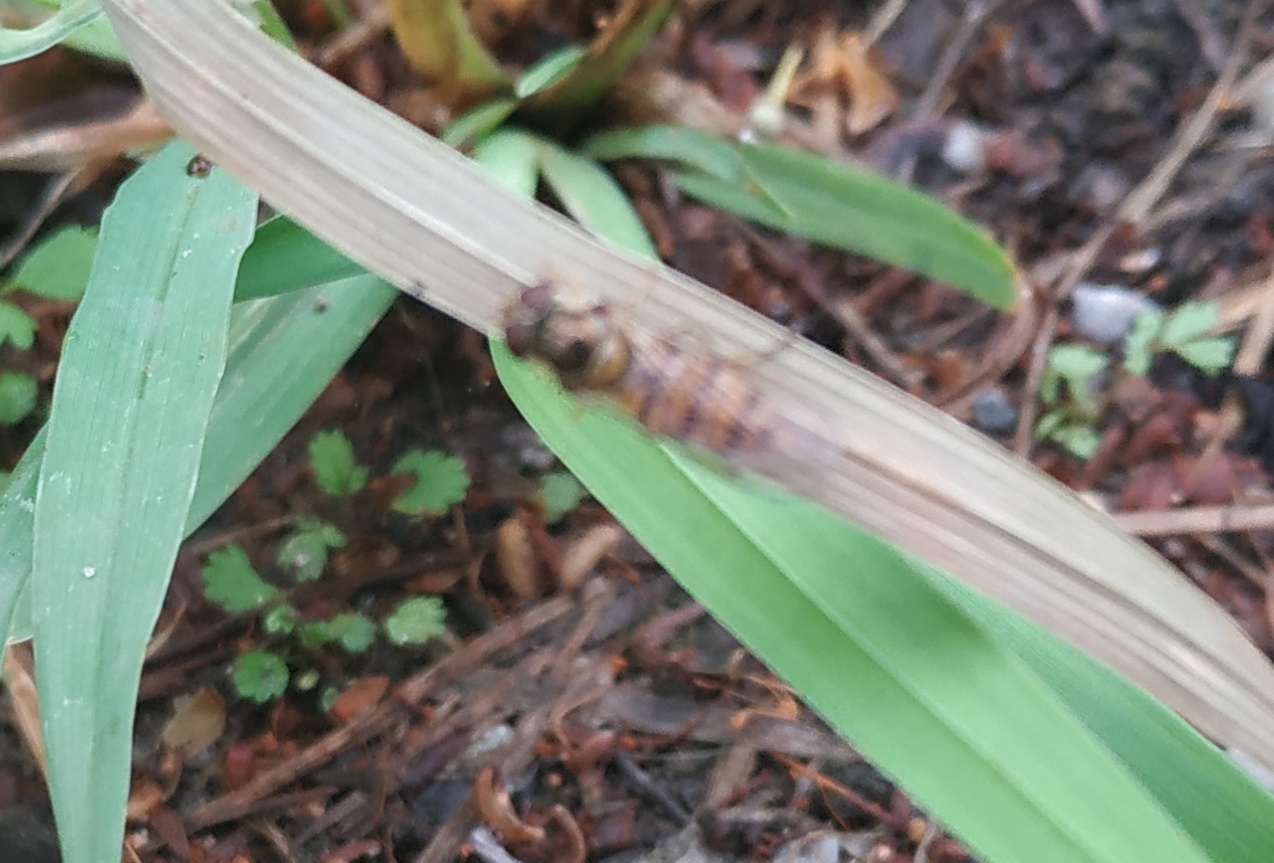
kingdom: Animalia
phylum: Arthropoda
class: Insecta
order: Diptera
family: Syrphidae
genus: Episyrphus
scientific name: Episyrphus balteatus
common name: Marmalade hoverfly
